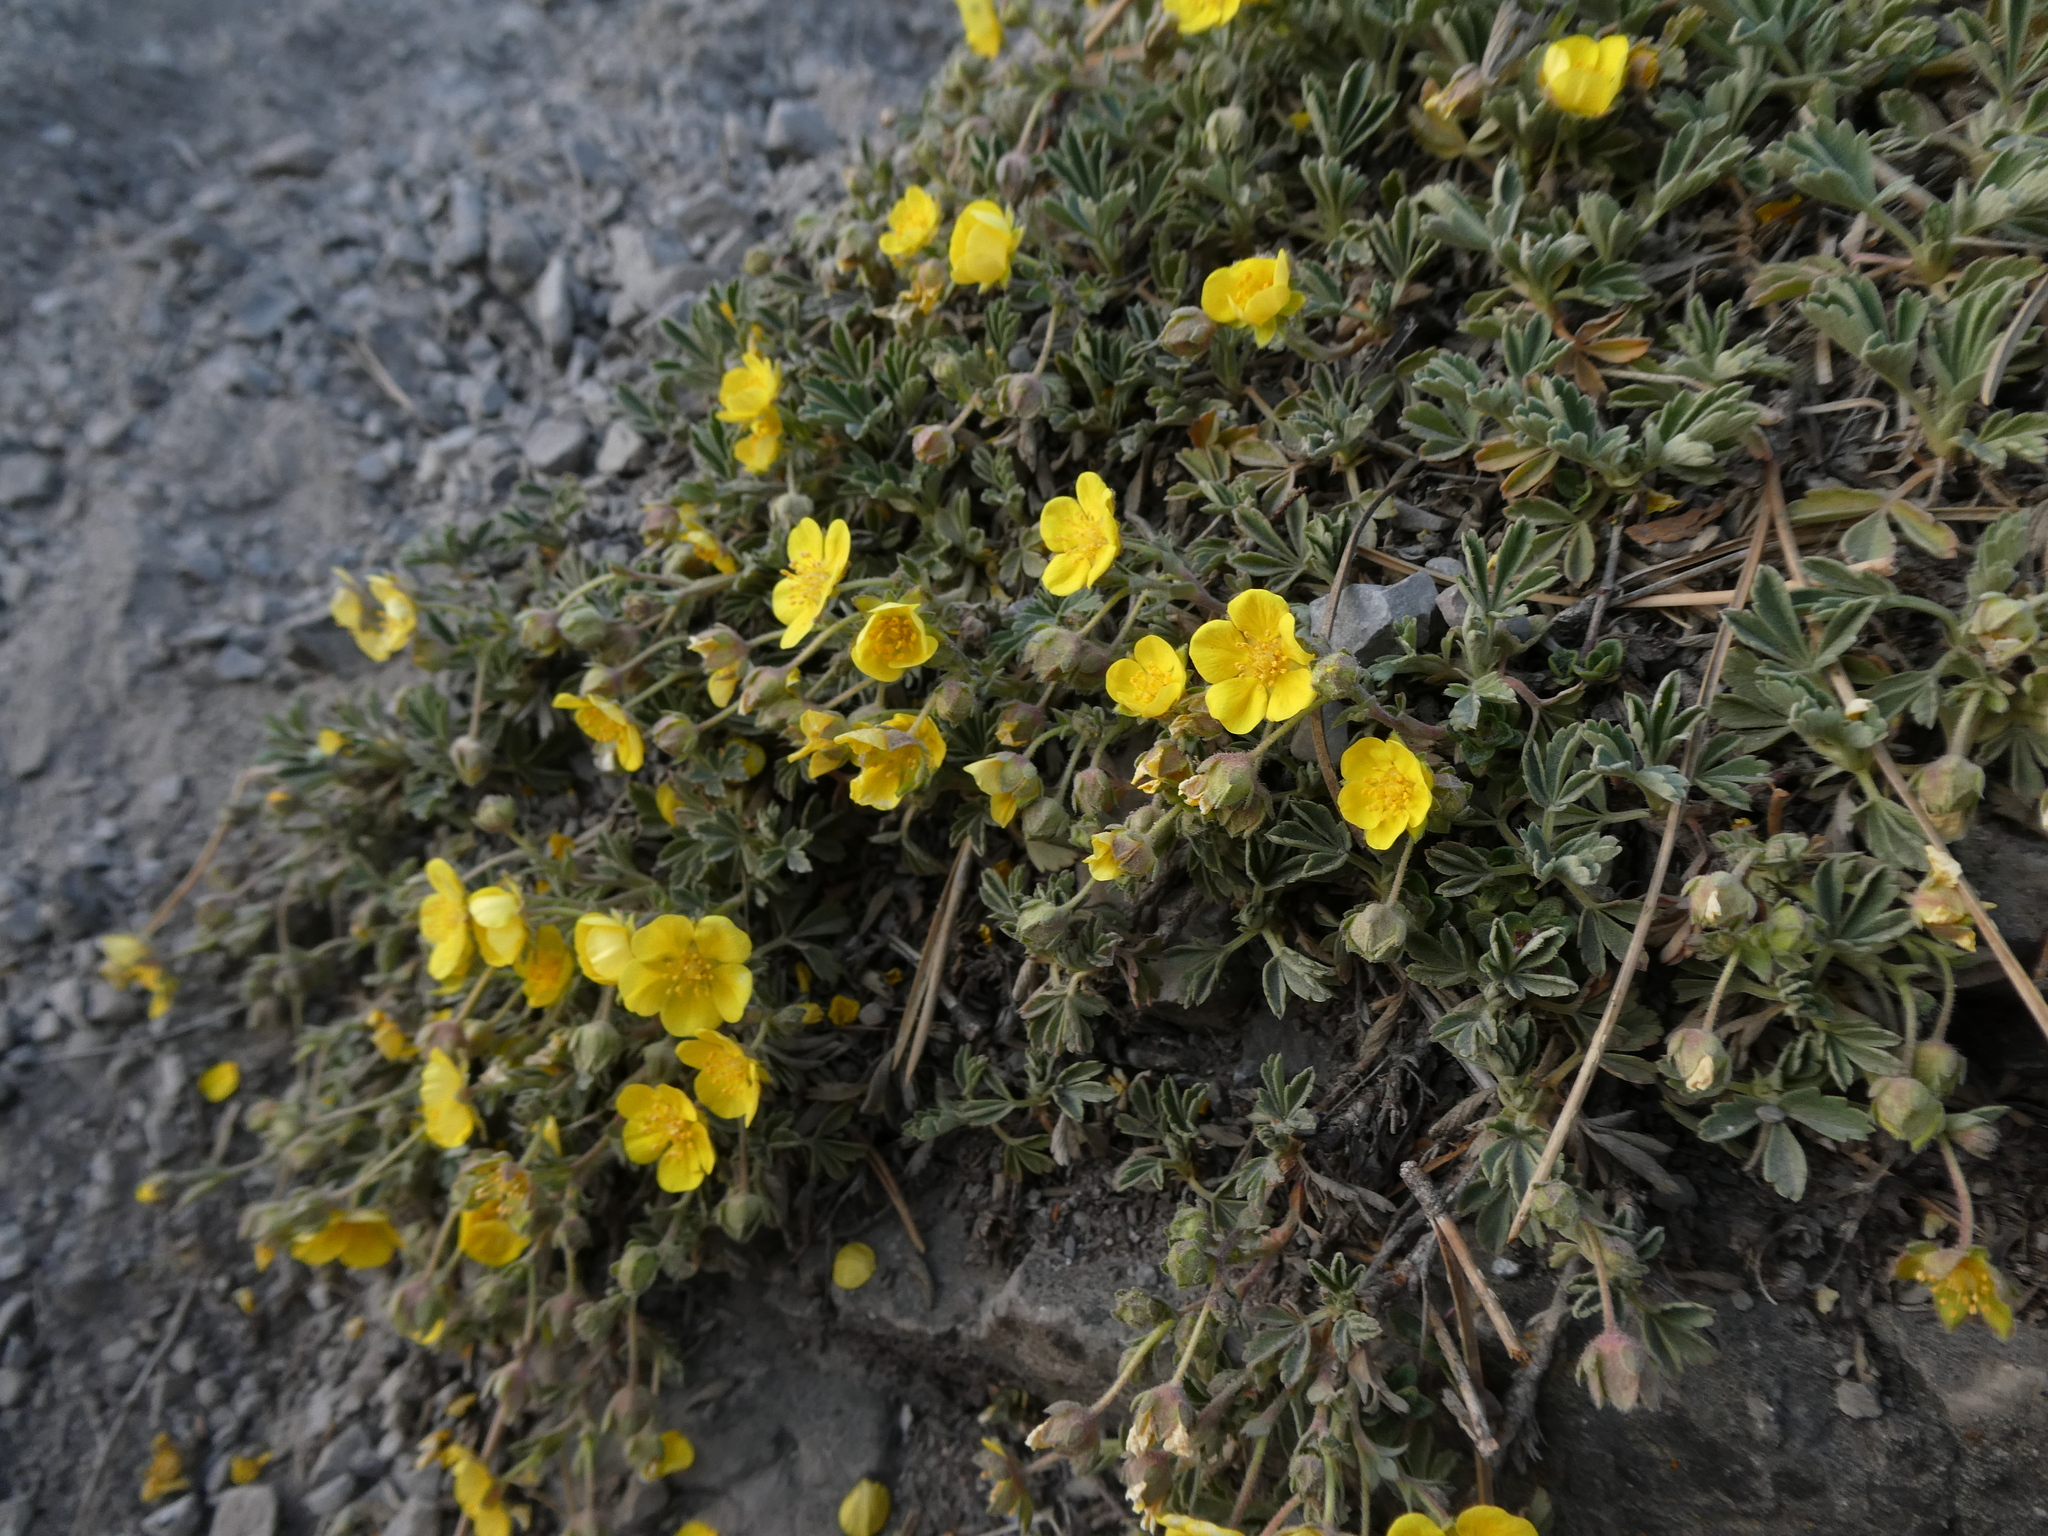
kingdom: Plantae
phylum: Tracheophyta
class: Magnoliopsida
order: Rosales
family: Rosaceae
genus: Potentilla
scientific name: Potentilla incana
